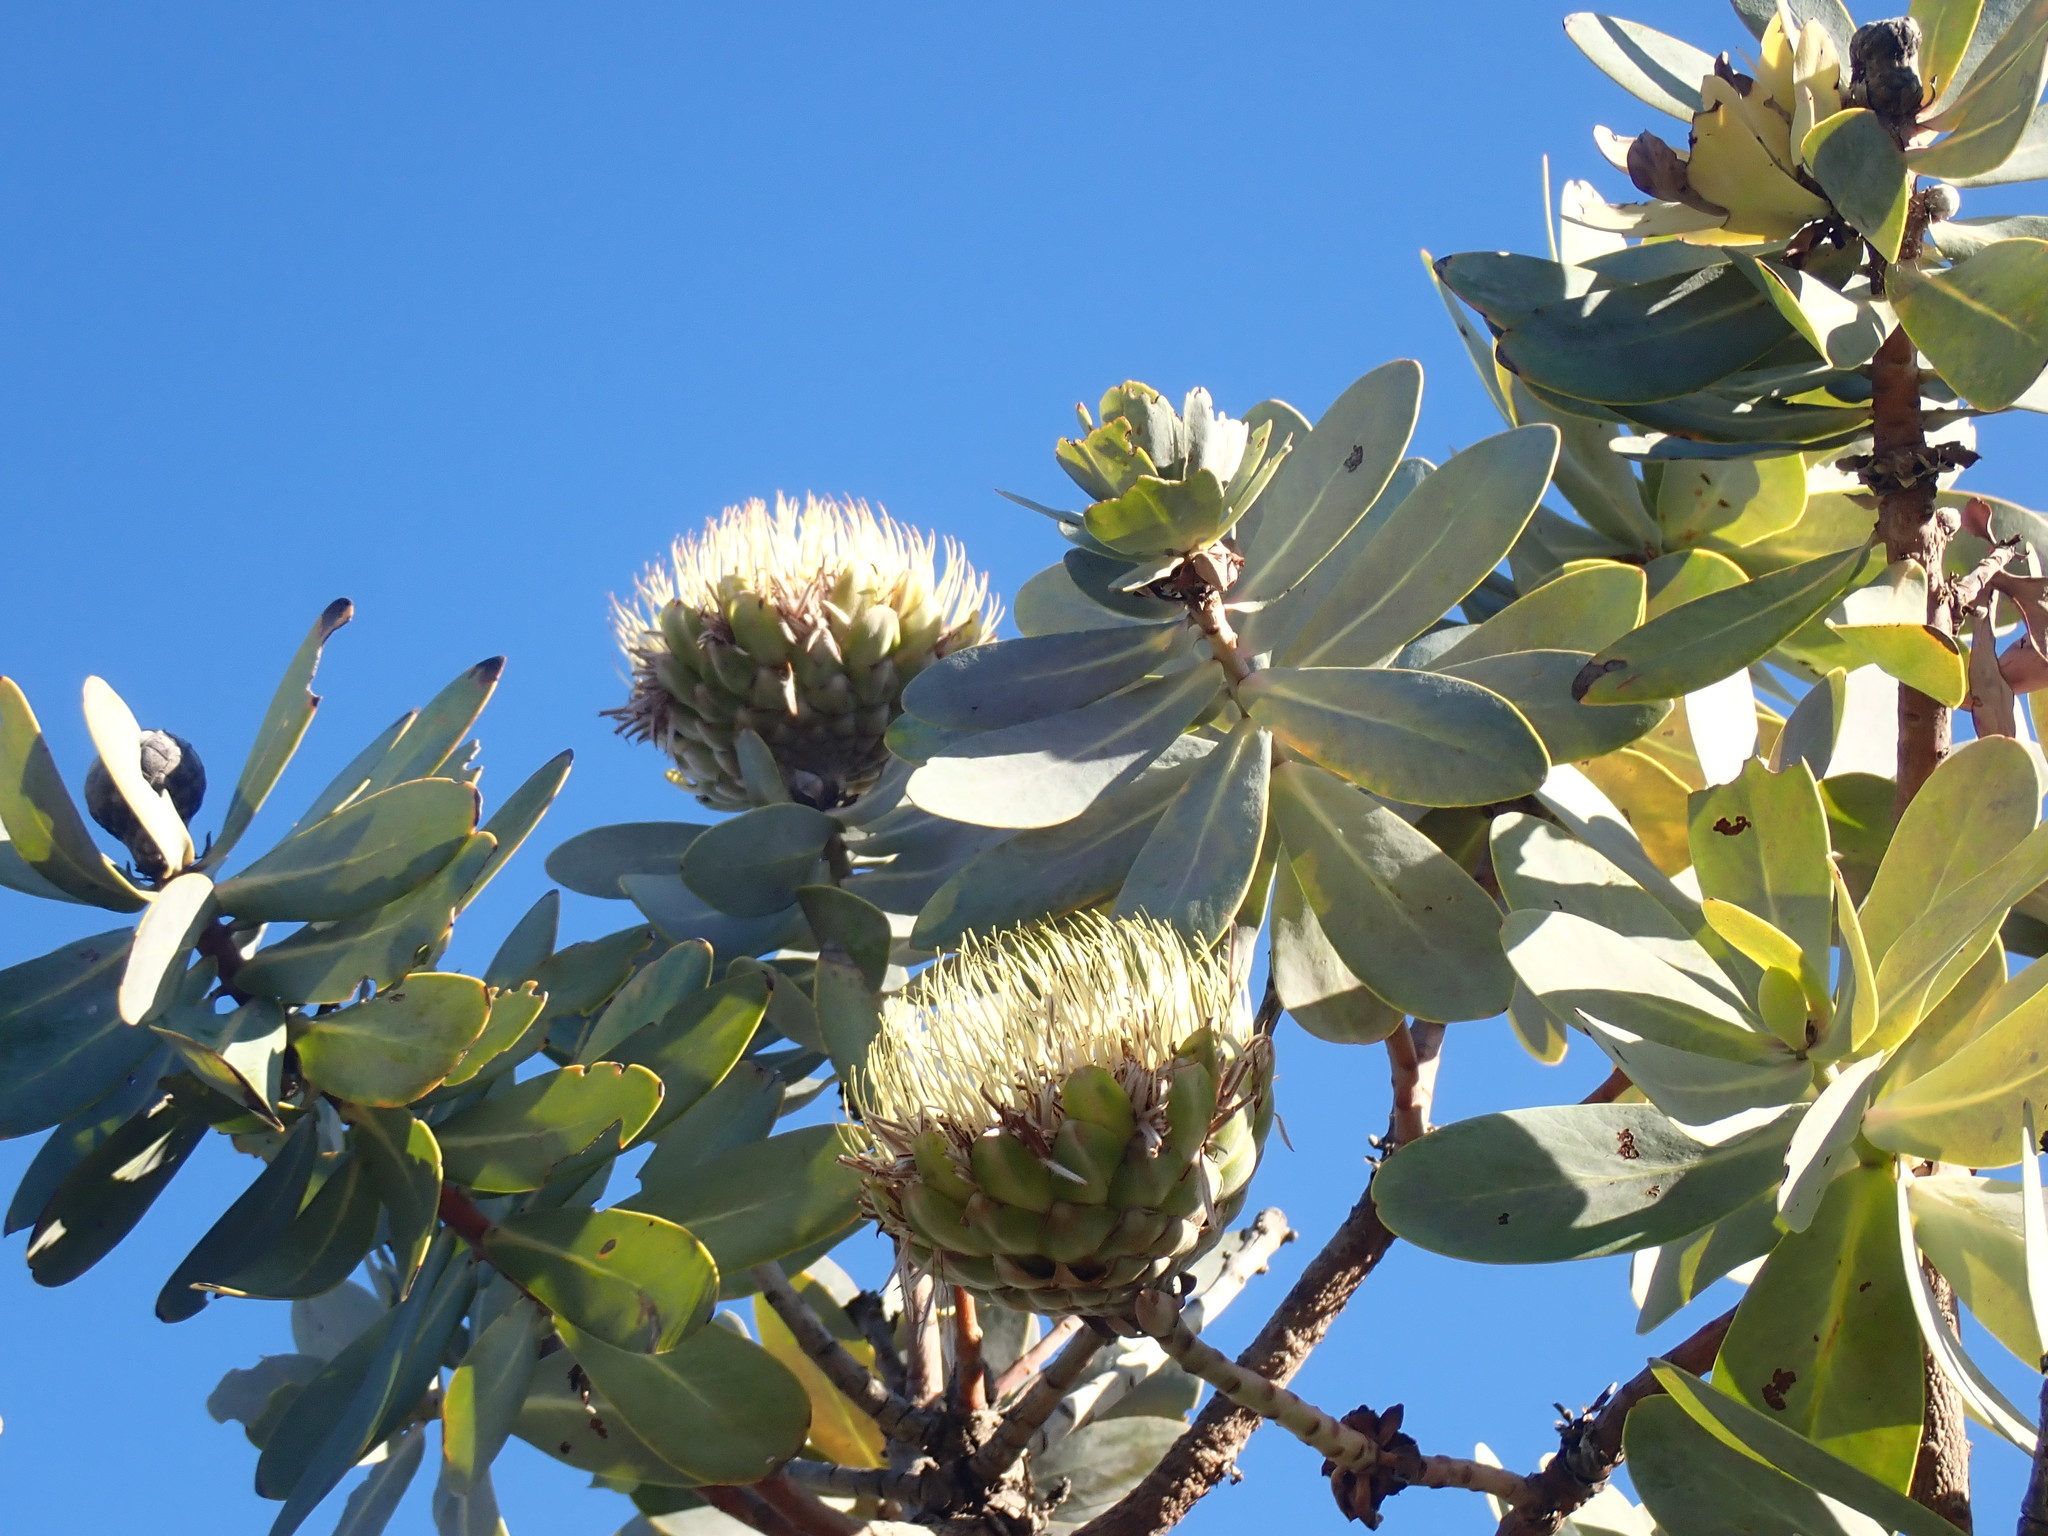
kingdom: Plantae
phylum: Tracheophyta
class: Magnoliopsida
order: Proteales
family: Proteaceae
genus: Protea
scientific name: Protea nitida
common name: Tree protea
